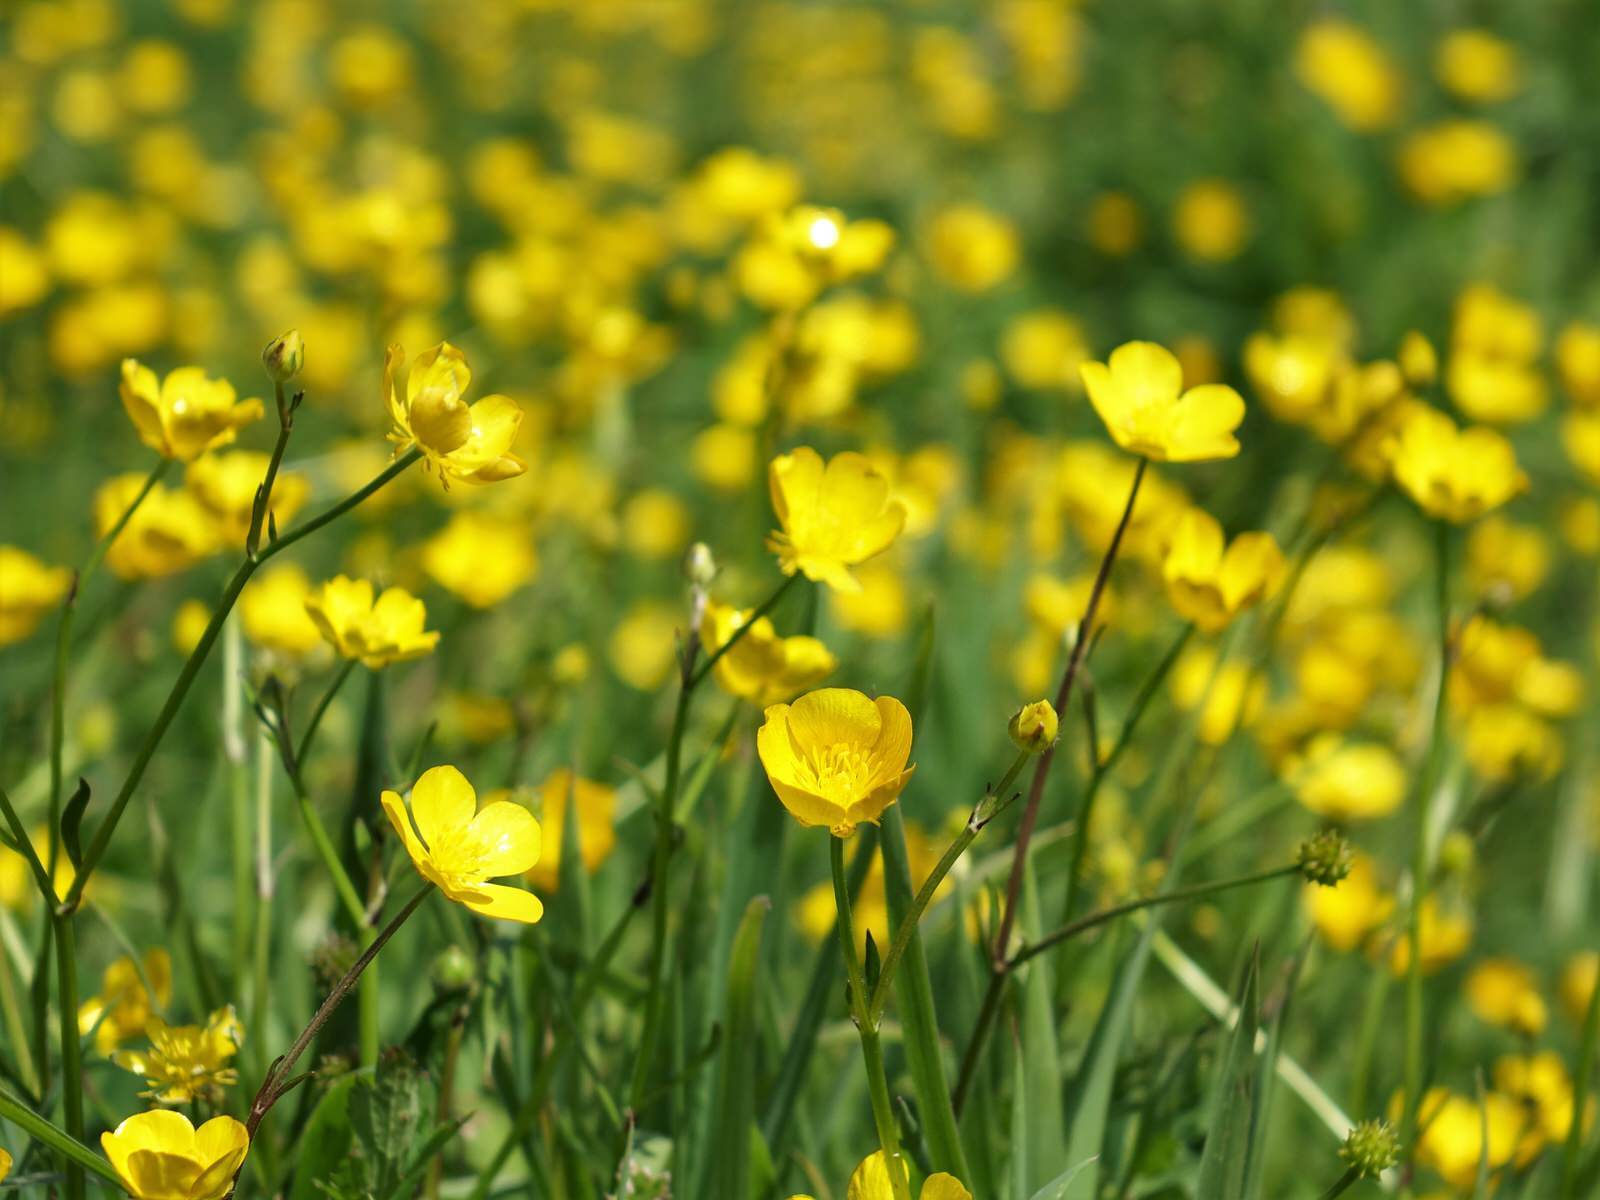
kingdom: Plantae
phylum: Tracheophyta
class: Magnoliopsida
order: Ranunculales
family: Ranunculaceae
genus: Ranunculus
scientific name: Ranunculus repens
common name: Creeping buttercup
